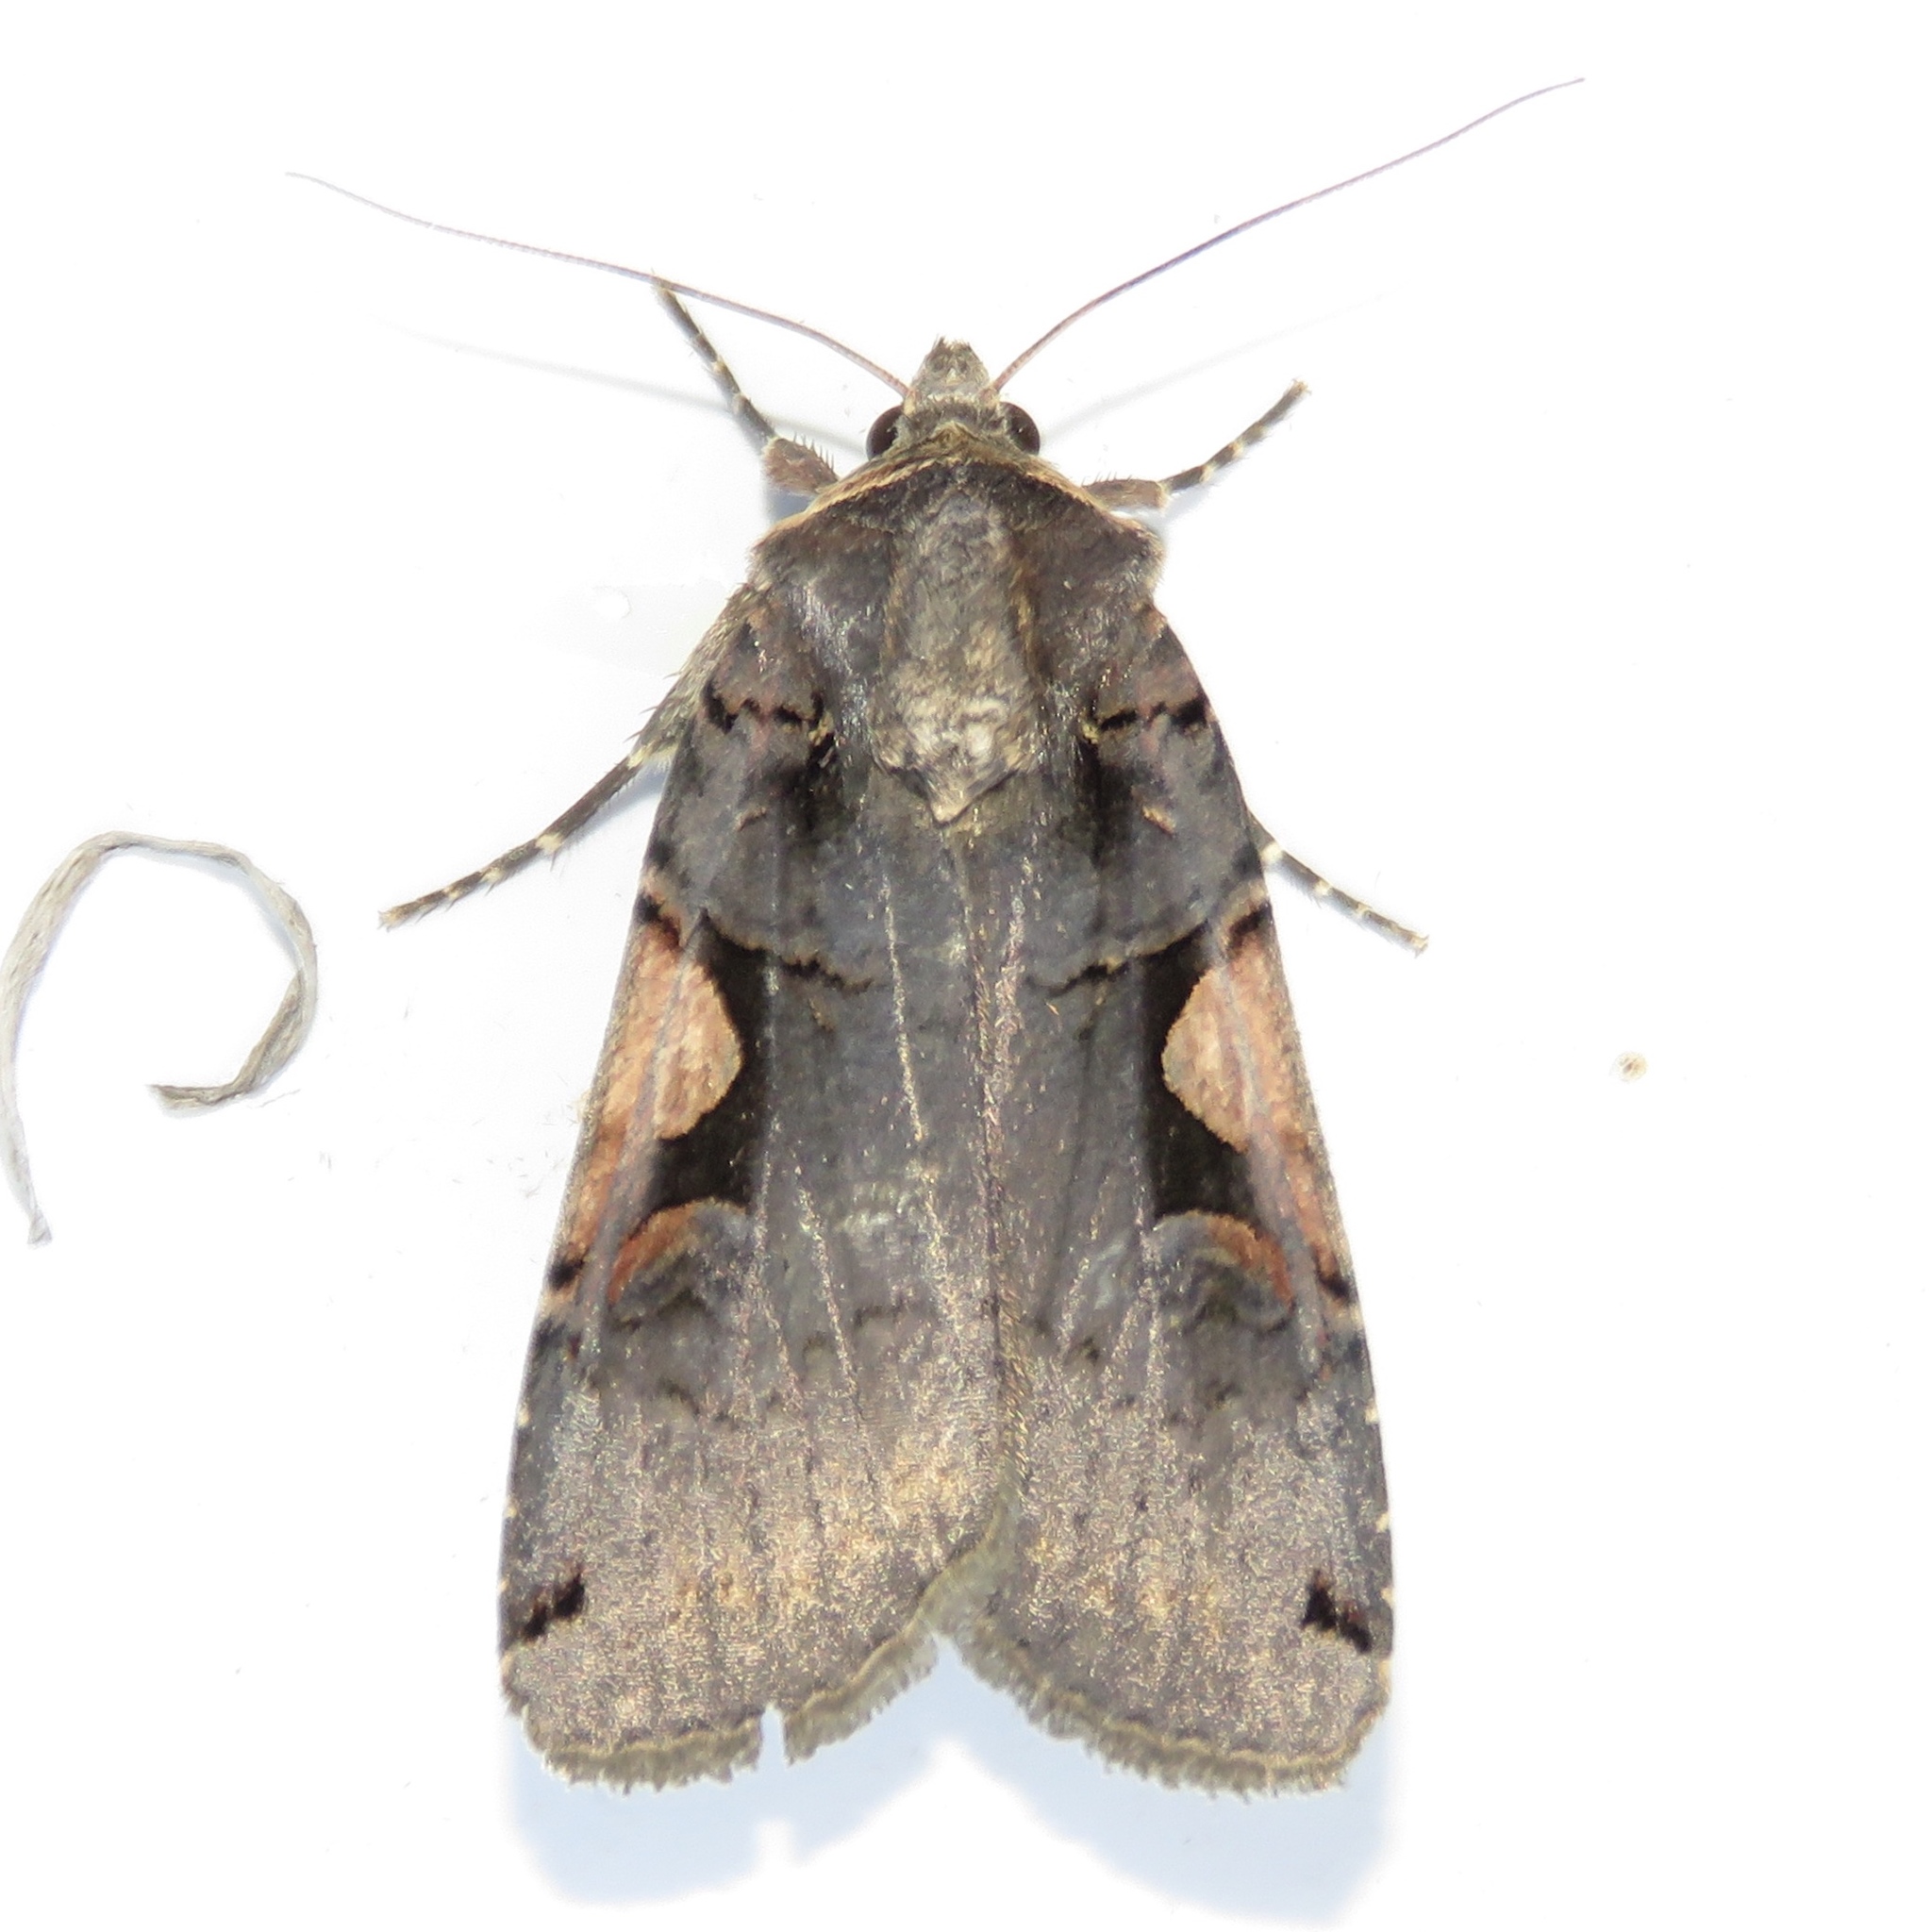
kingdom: Animalia
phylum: Arthropoda
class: Insecta
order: Lepidoptera
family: Noctuidae
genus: Xestia
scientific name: Xestia dolosa
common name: Cutworm moth
